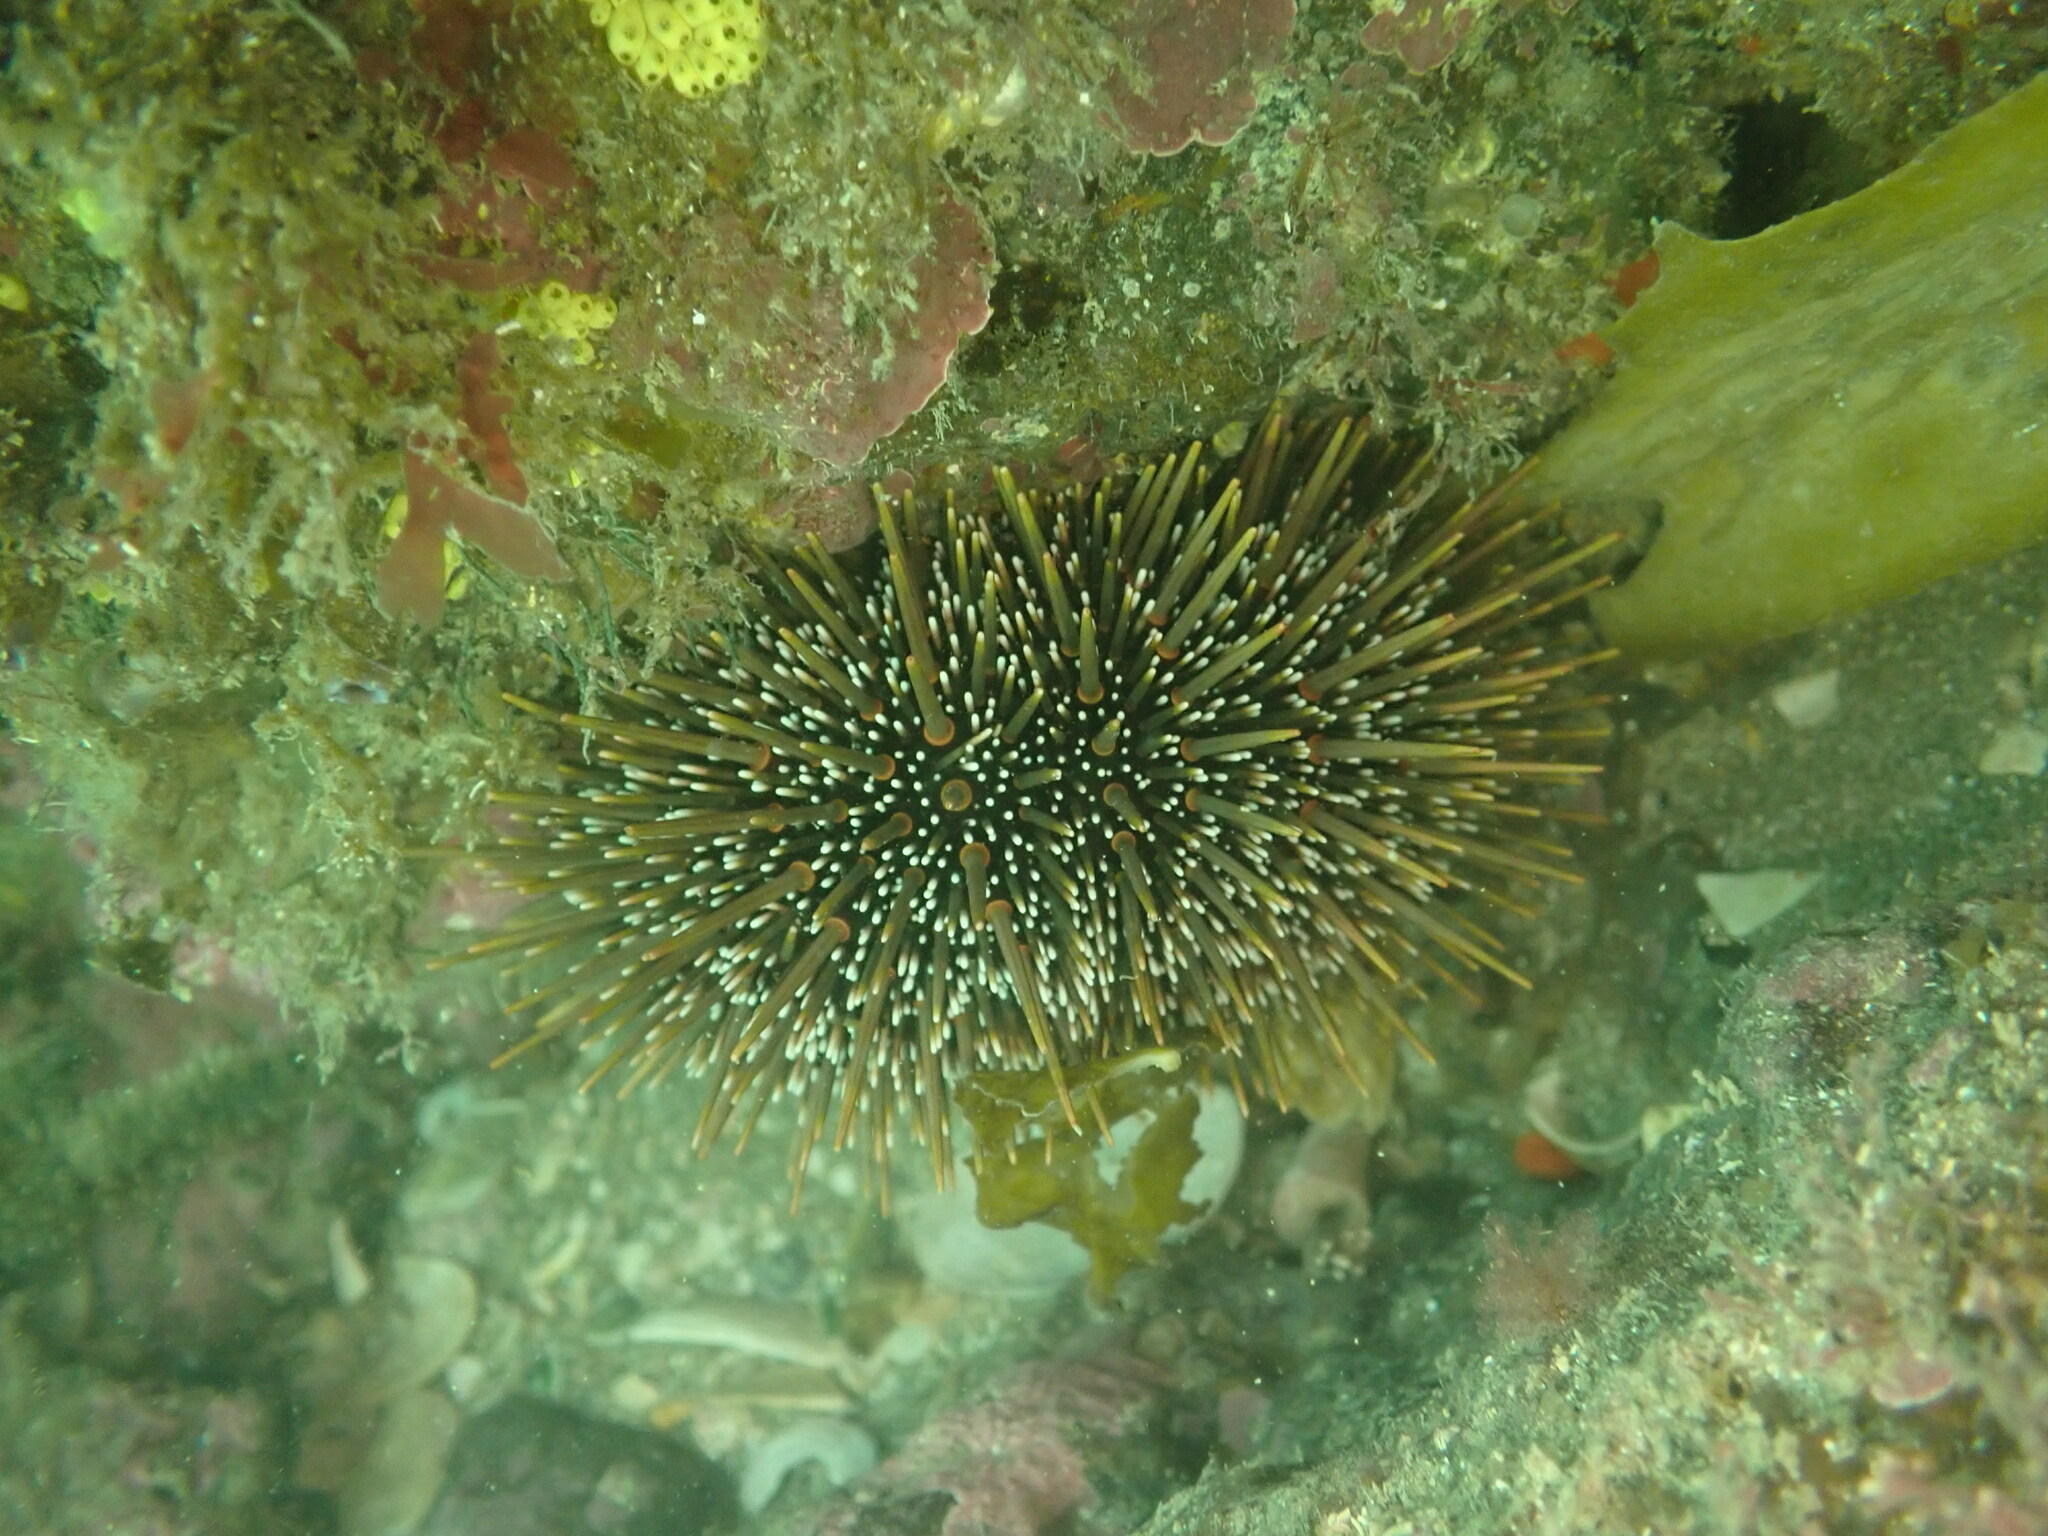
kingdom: Animalia
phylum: Echinodermata
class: Echinoidea
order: Camarodonta
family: Echinometridae
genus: Evechinus
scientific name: Evechinus chloroticus
